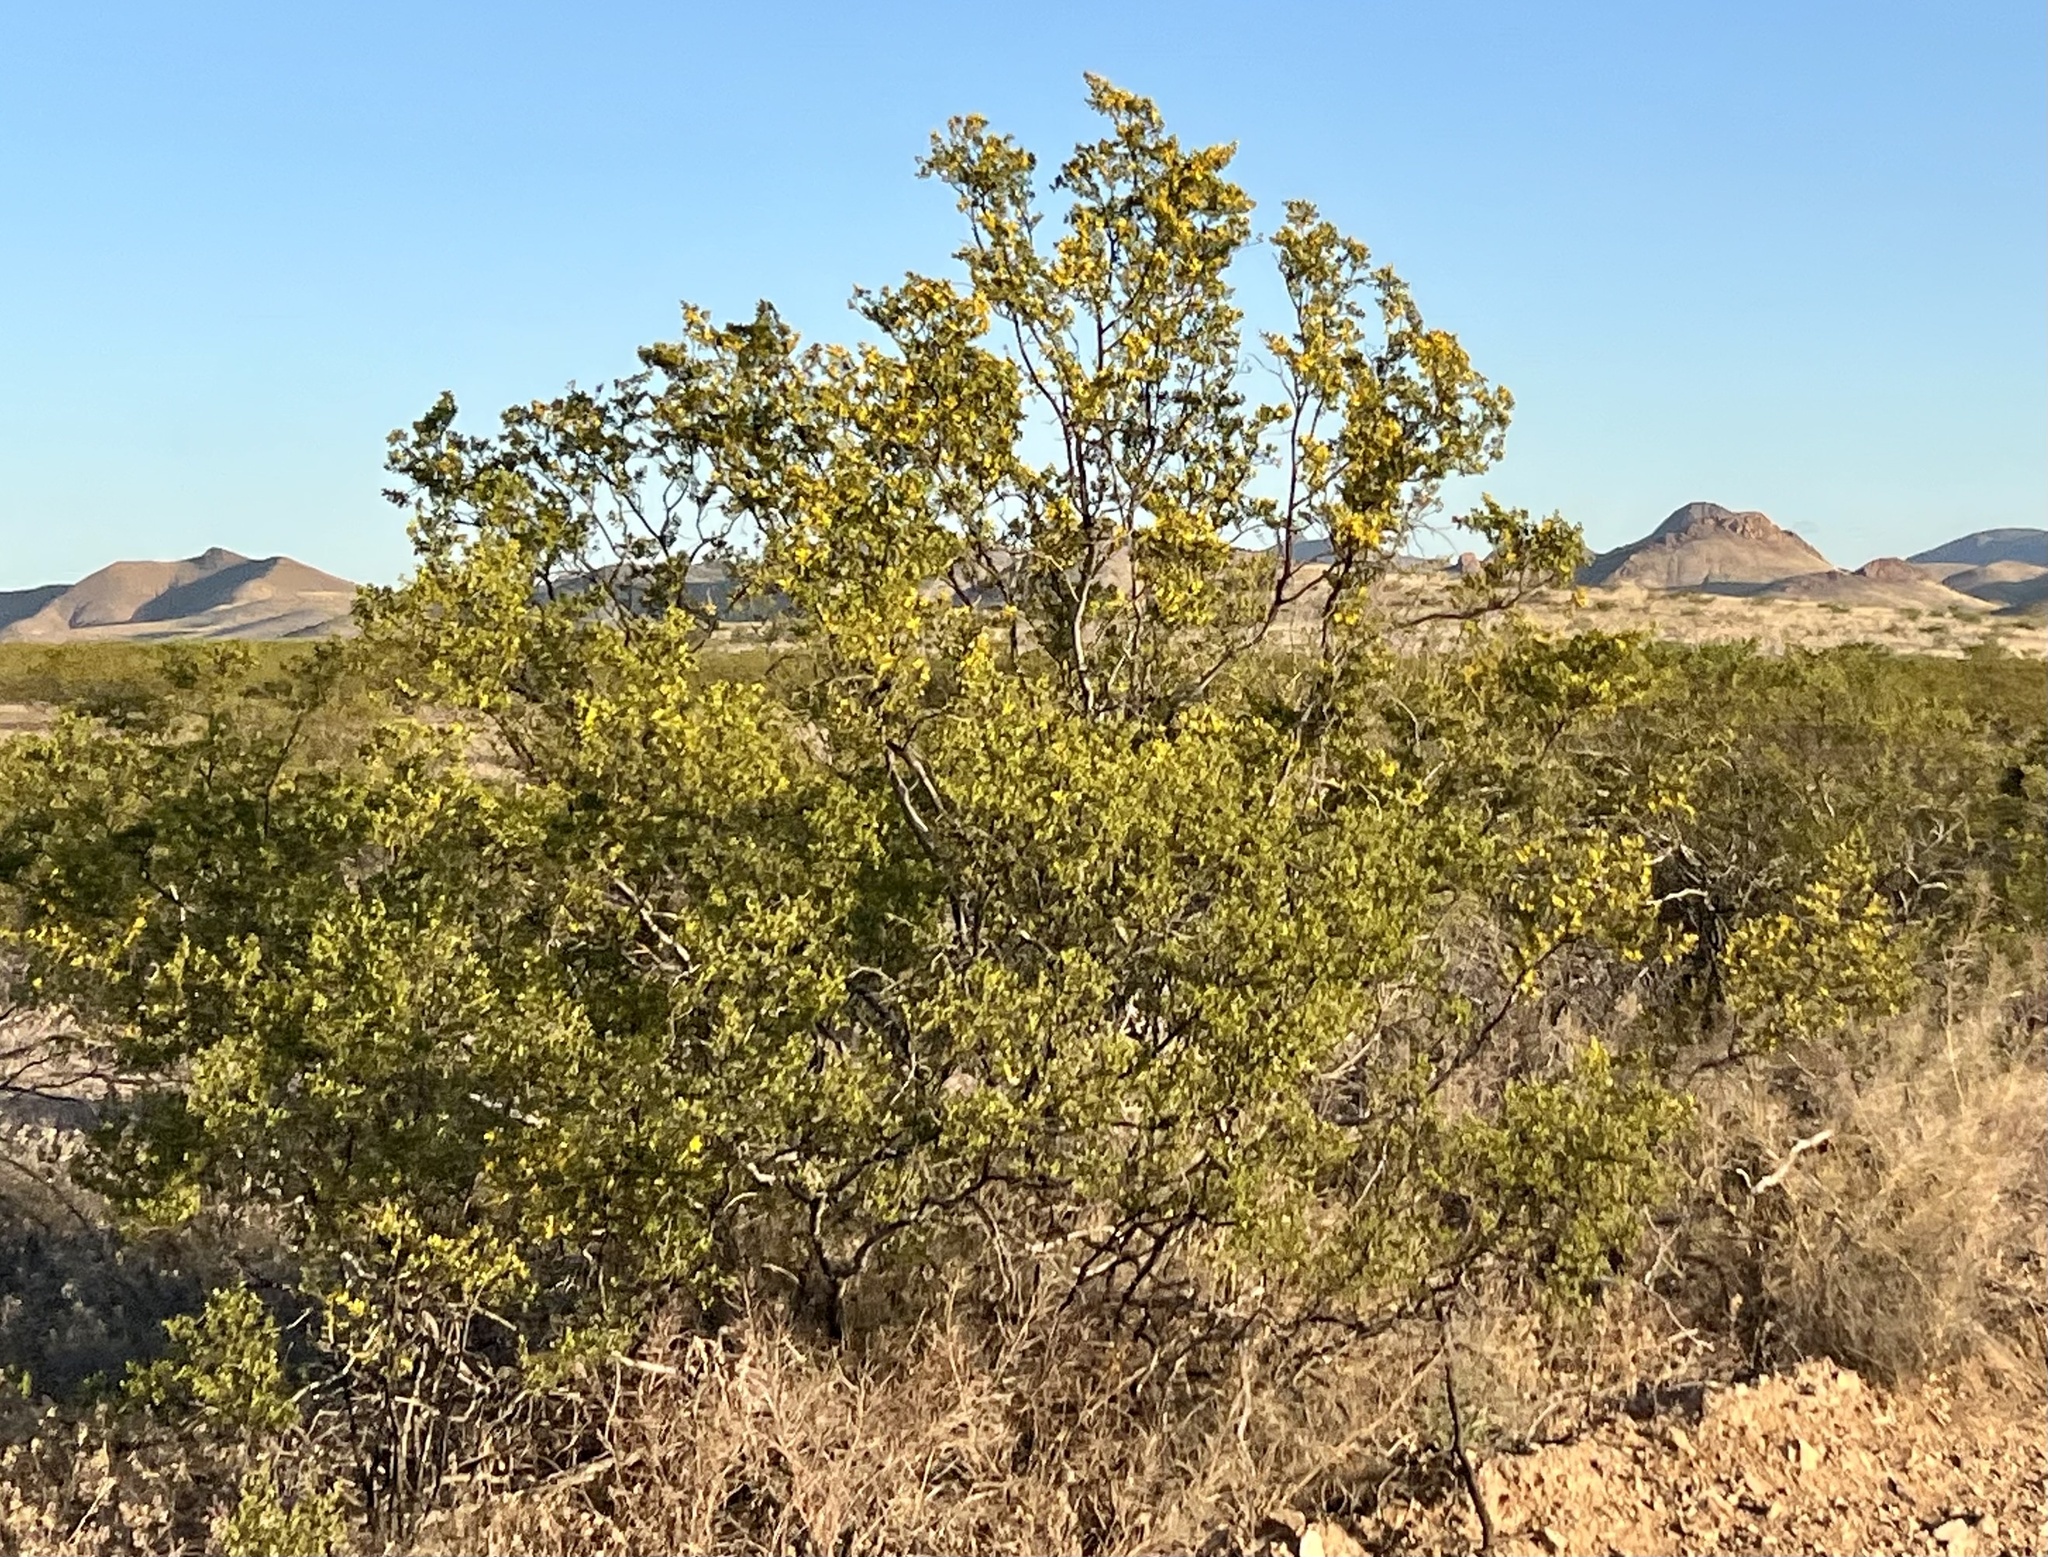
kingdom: Plantae
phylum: Tracheophyta
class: Magnoliopsida
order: Zygophyllales
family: Zygophyllaceae
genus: Larrea
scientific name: Larrea tridentata
